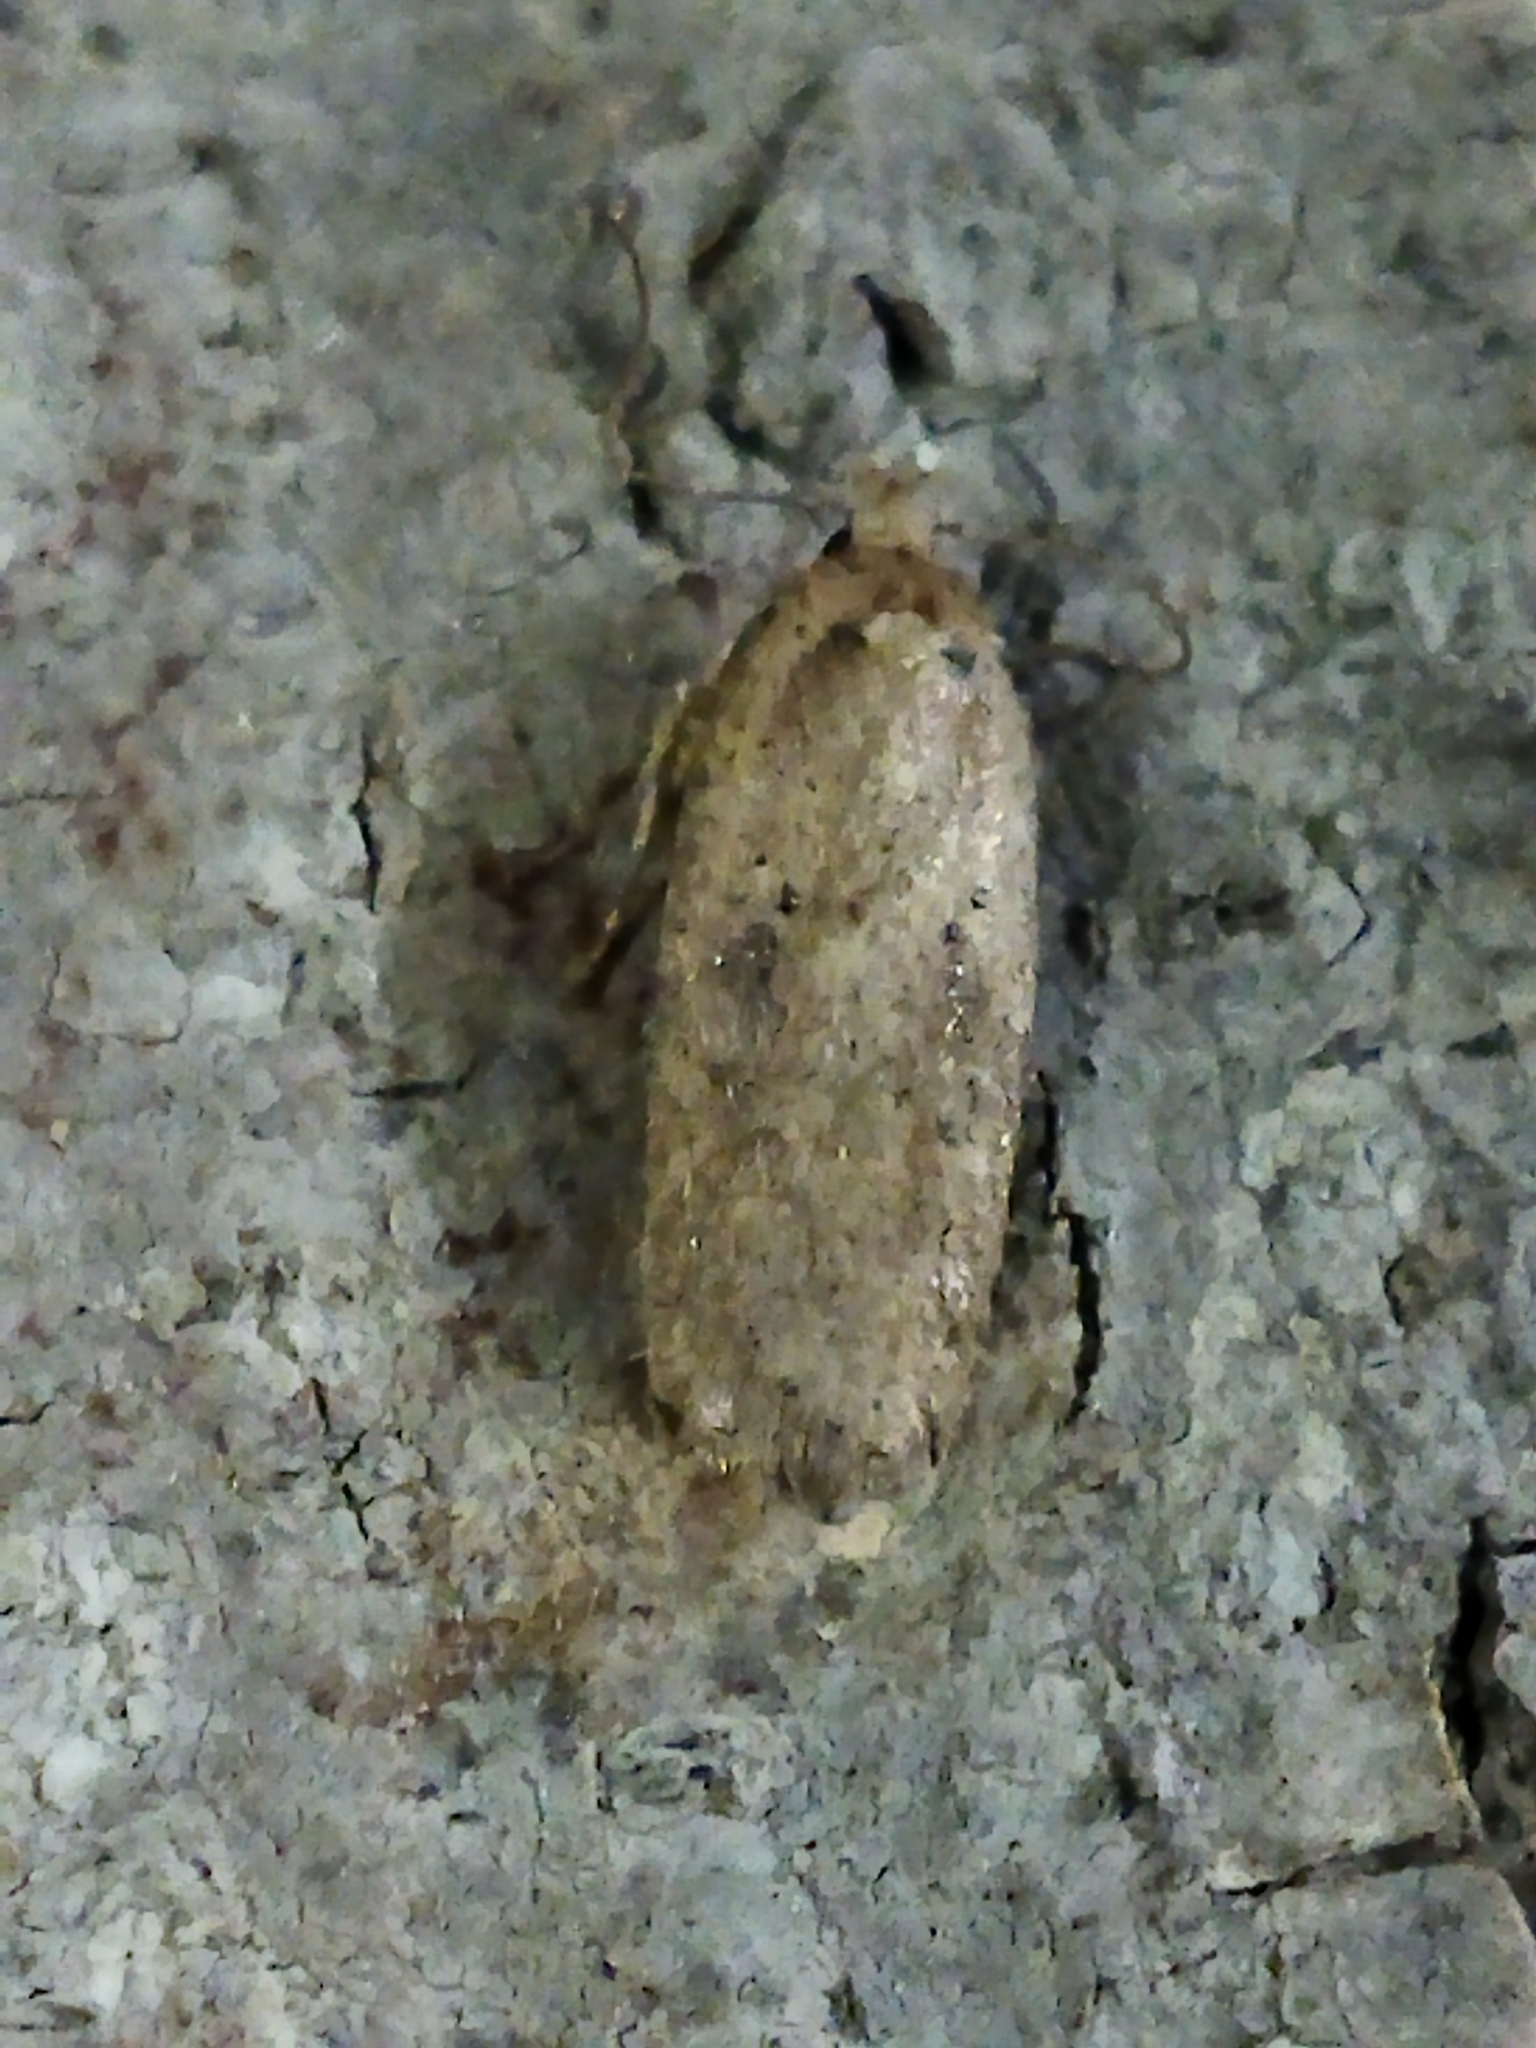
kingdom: Animalia
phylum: Arthropoda
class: Insecta
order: Lepidoptera
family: Depressariidae
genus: Agonopterix
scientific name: Agonopterix arenella
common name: Brindled flat-body
